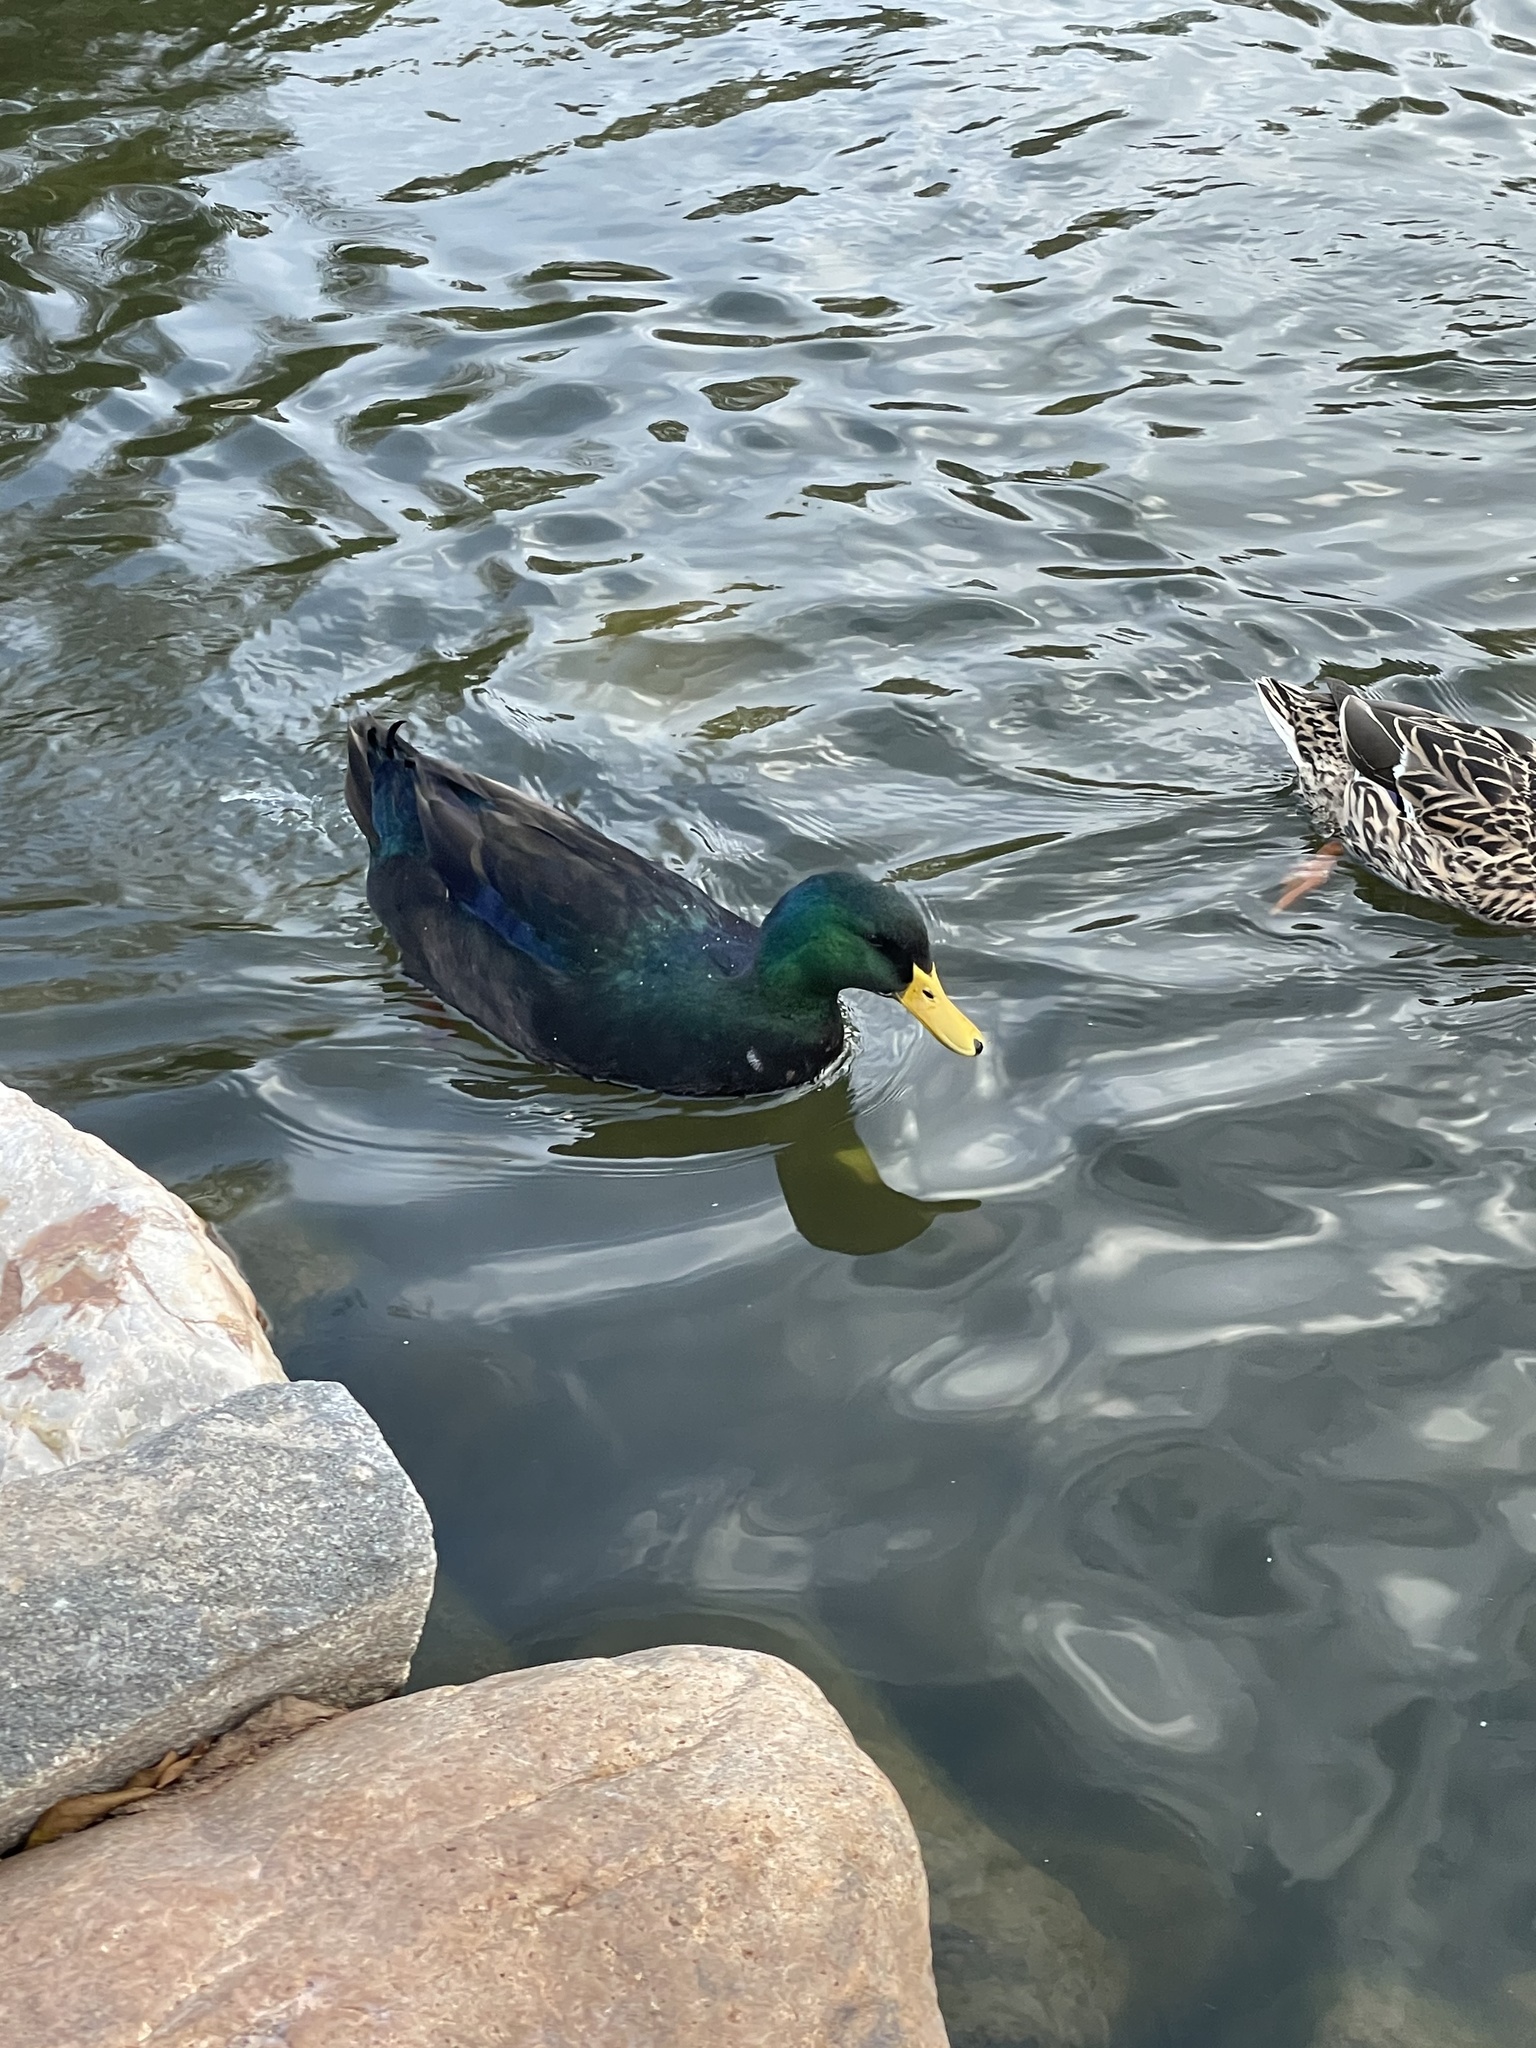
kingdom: Animalia
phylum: Chordata
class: Aves
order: Anseriformes
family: Anatidae
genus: Anas
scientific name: Anas platyrhynchos
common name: Mallard
